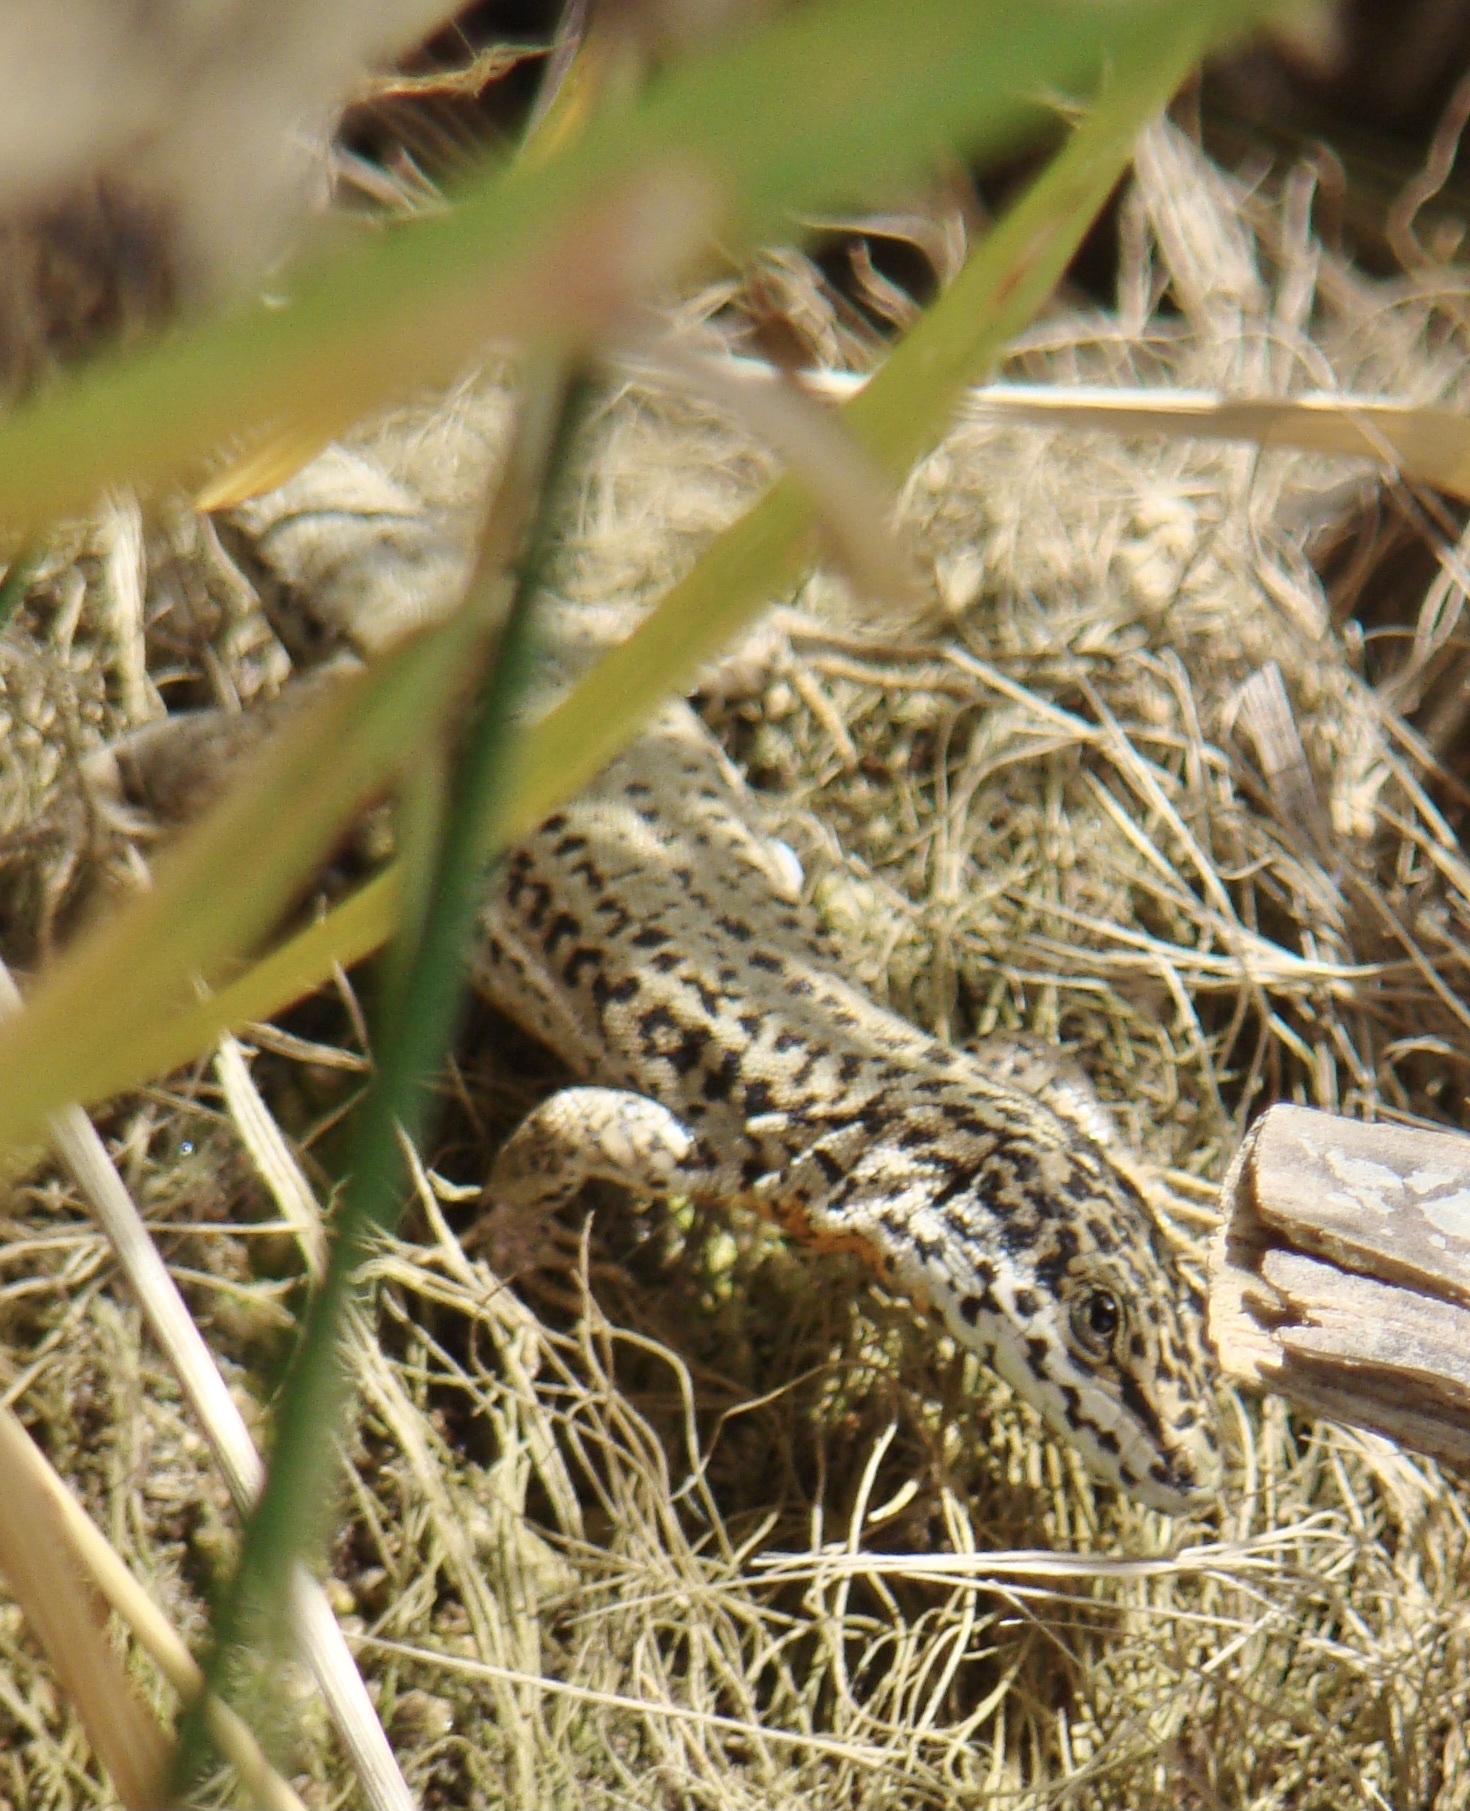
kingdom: Animalia
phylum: Chordata
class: Squamata
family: Lacertidae
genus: Podarcis
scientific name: Podarcis liolepis
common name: Catalonian wall lizard
